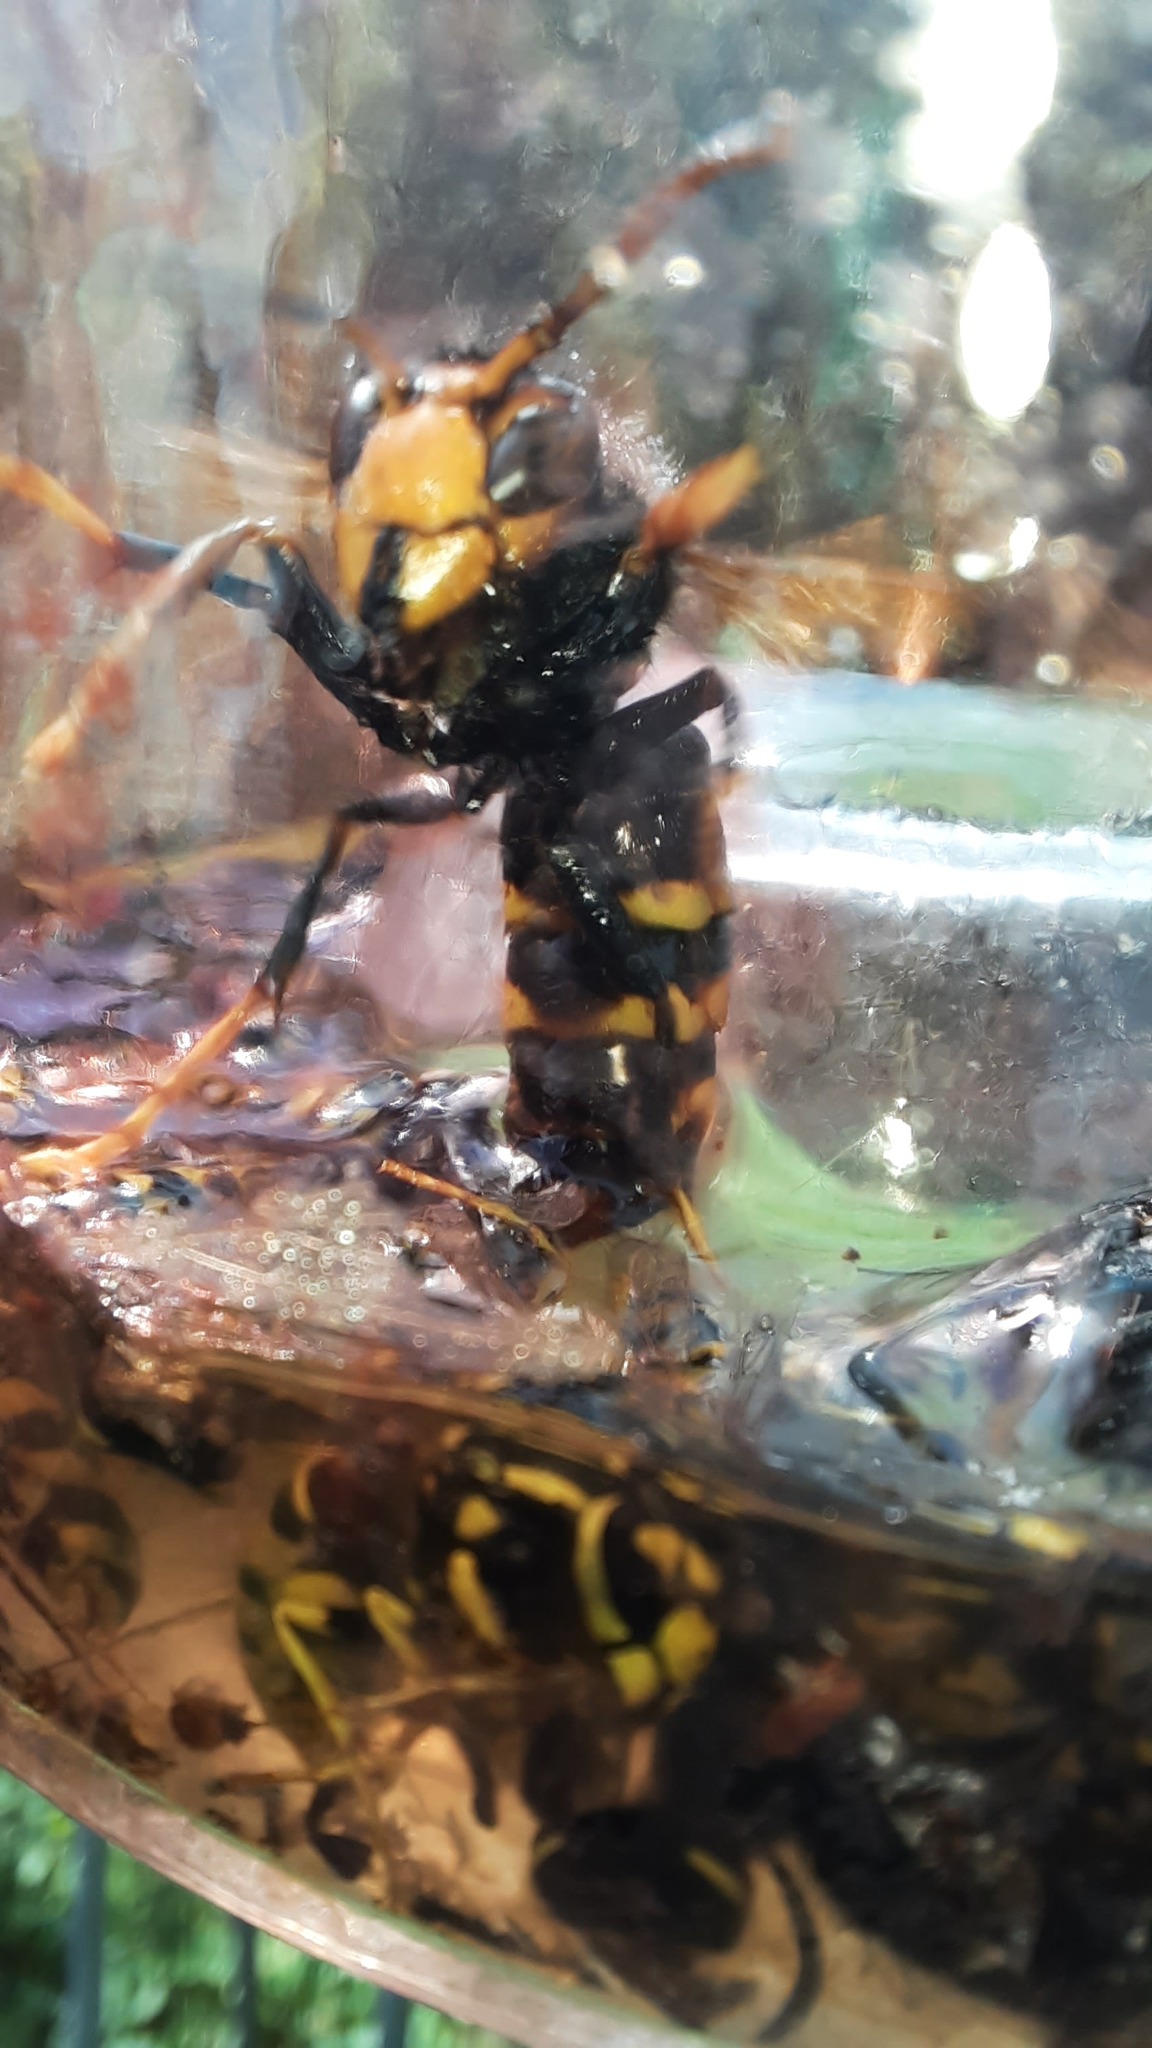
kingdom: Animalia
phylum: Arthropoda
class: Insecta
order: Hymenoptera
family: Vespidae
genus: Vespa
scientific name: Vespa velutina
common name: Asian hornet
